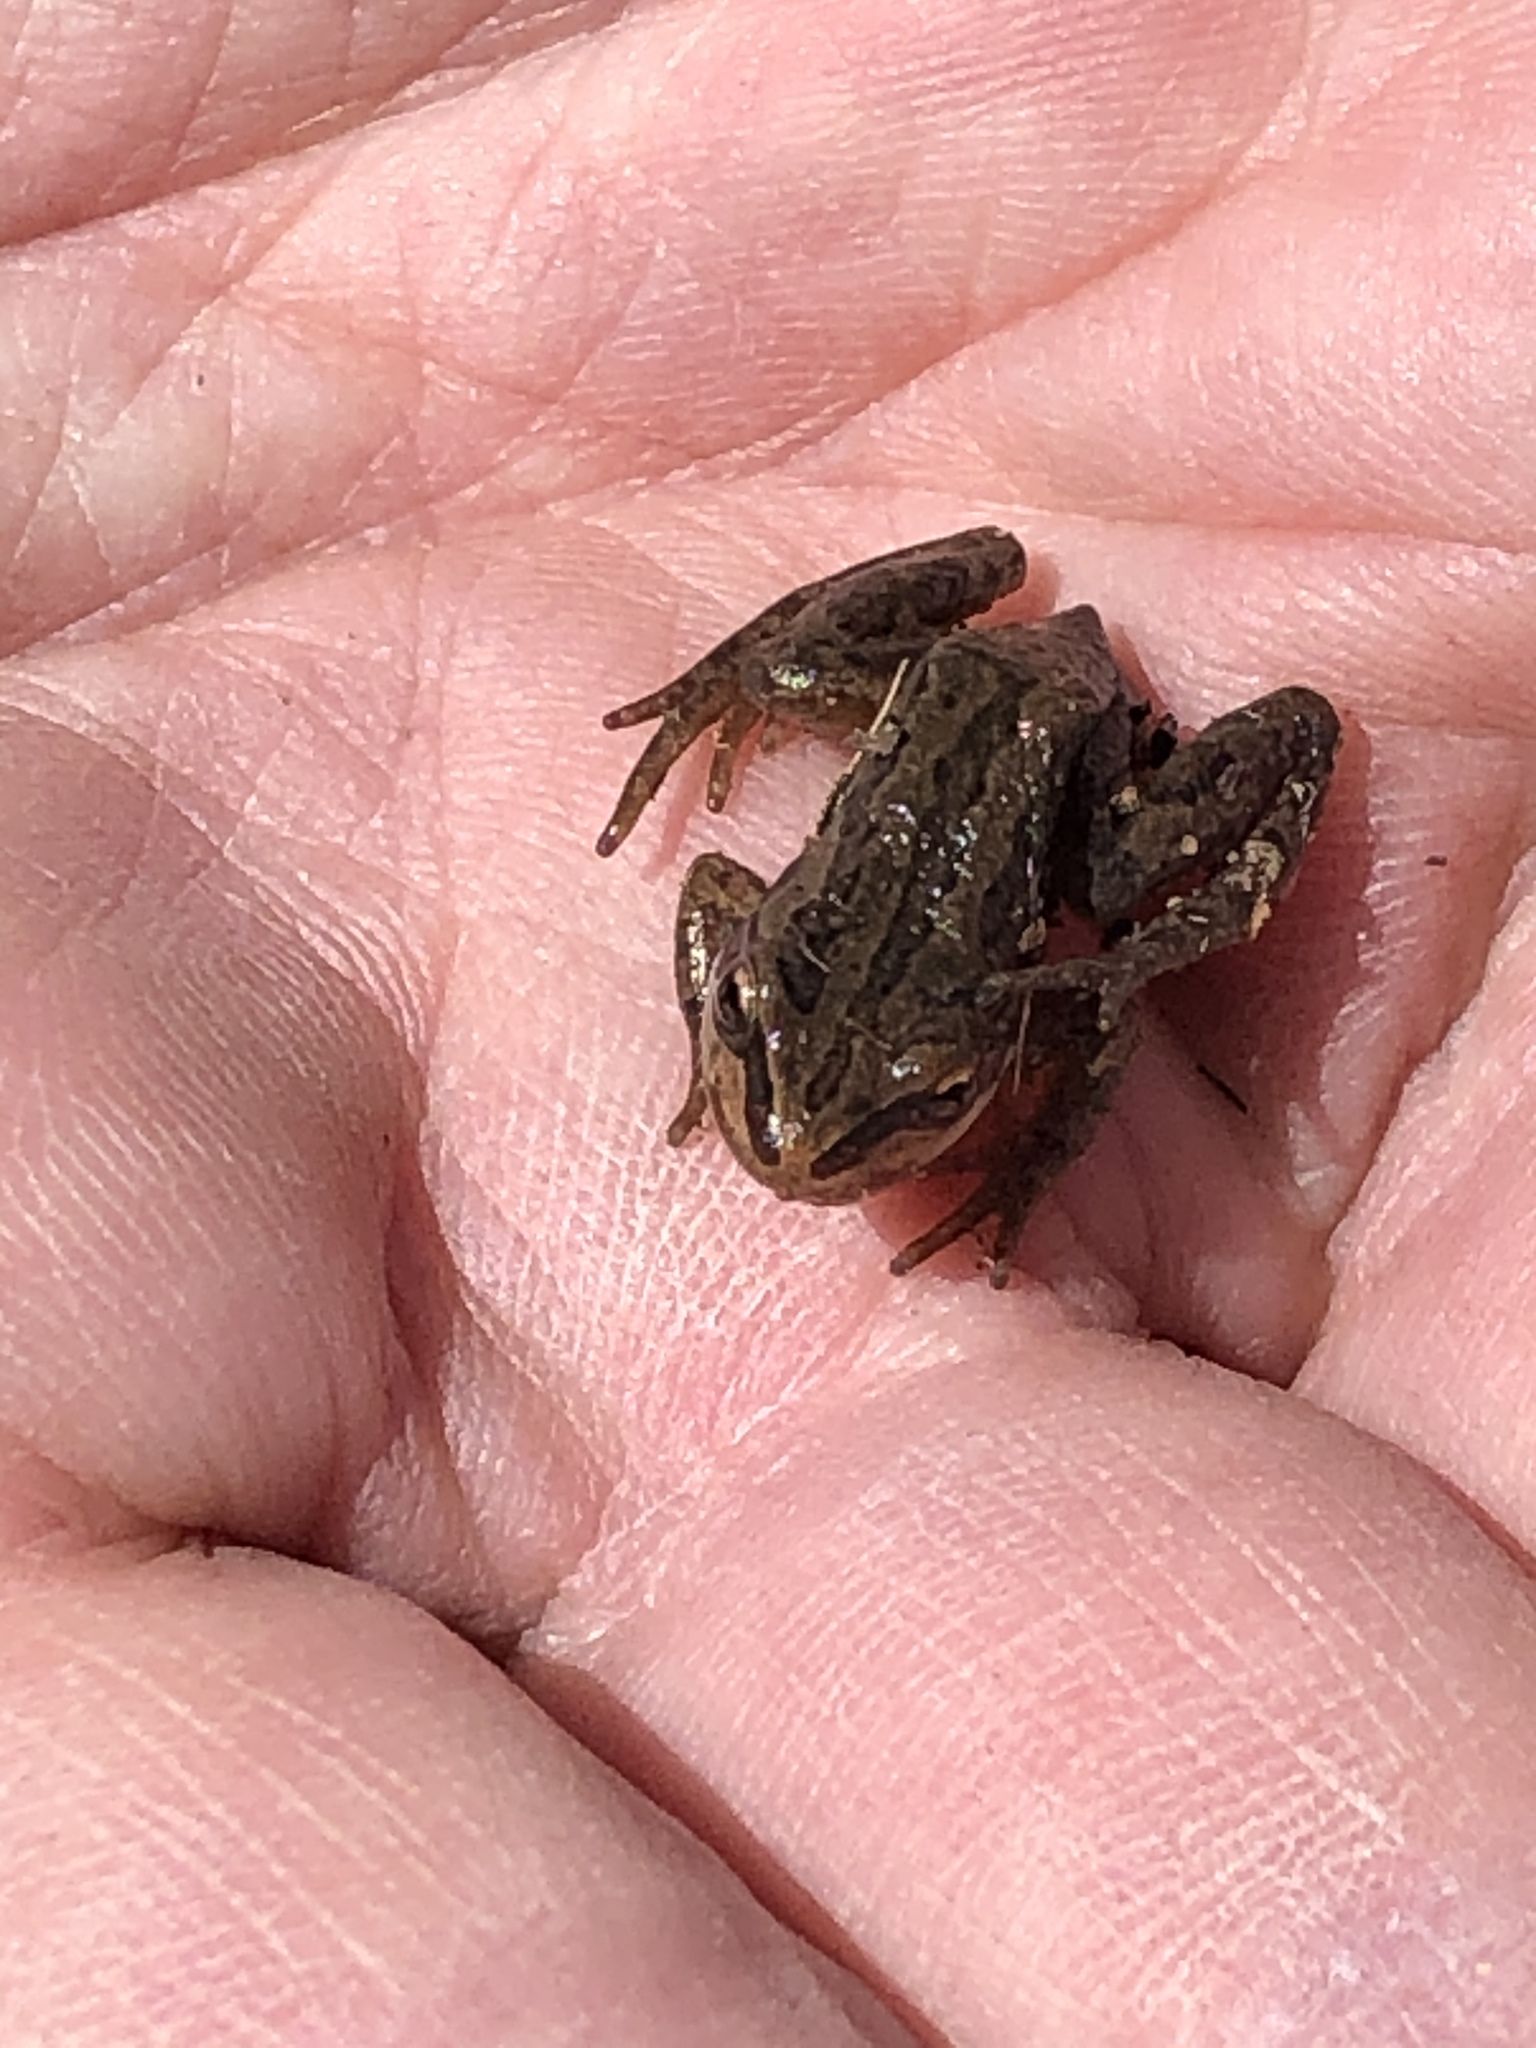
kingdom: Animalia
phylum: Chordata
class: Amphibia
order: Anura
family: Hylidae
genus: Pseudacris
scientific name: Pseudacris maculata
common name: Boreal chorus frog
